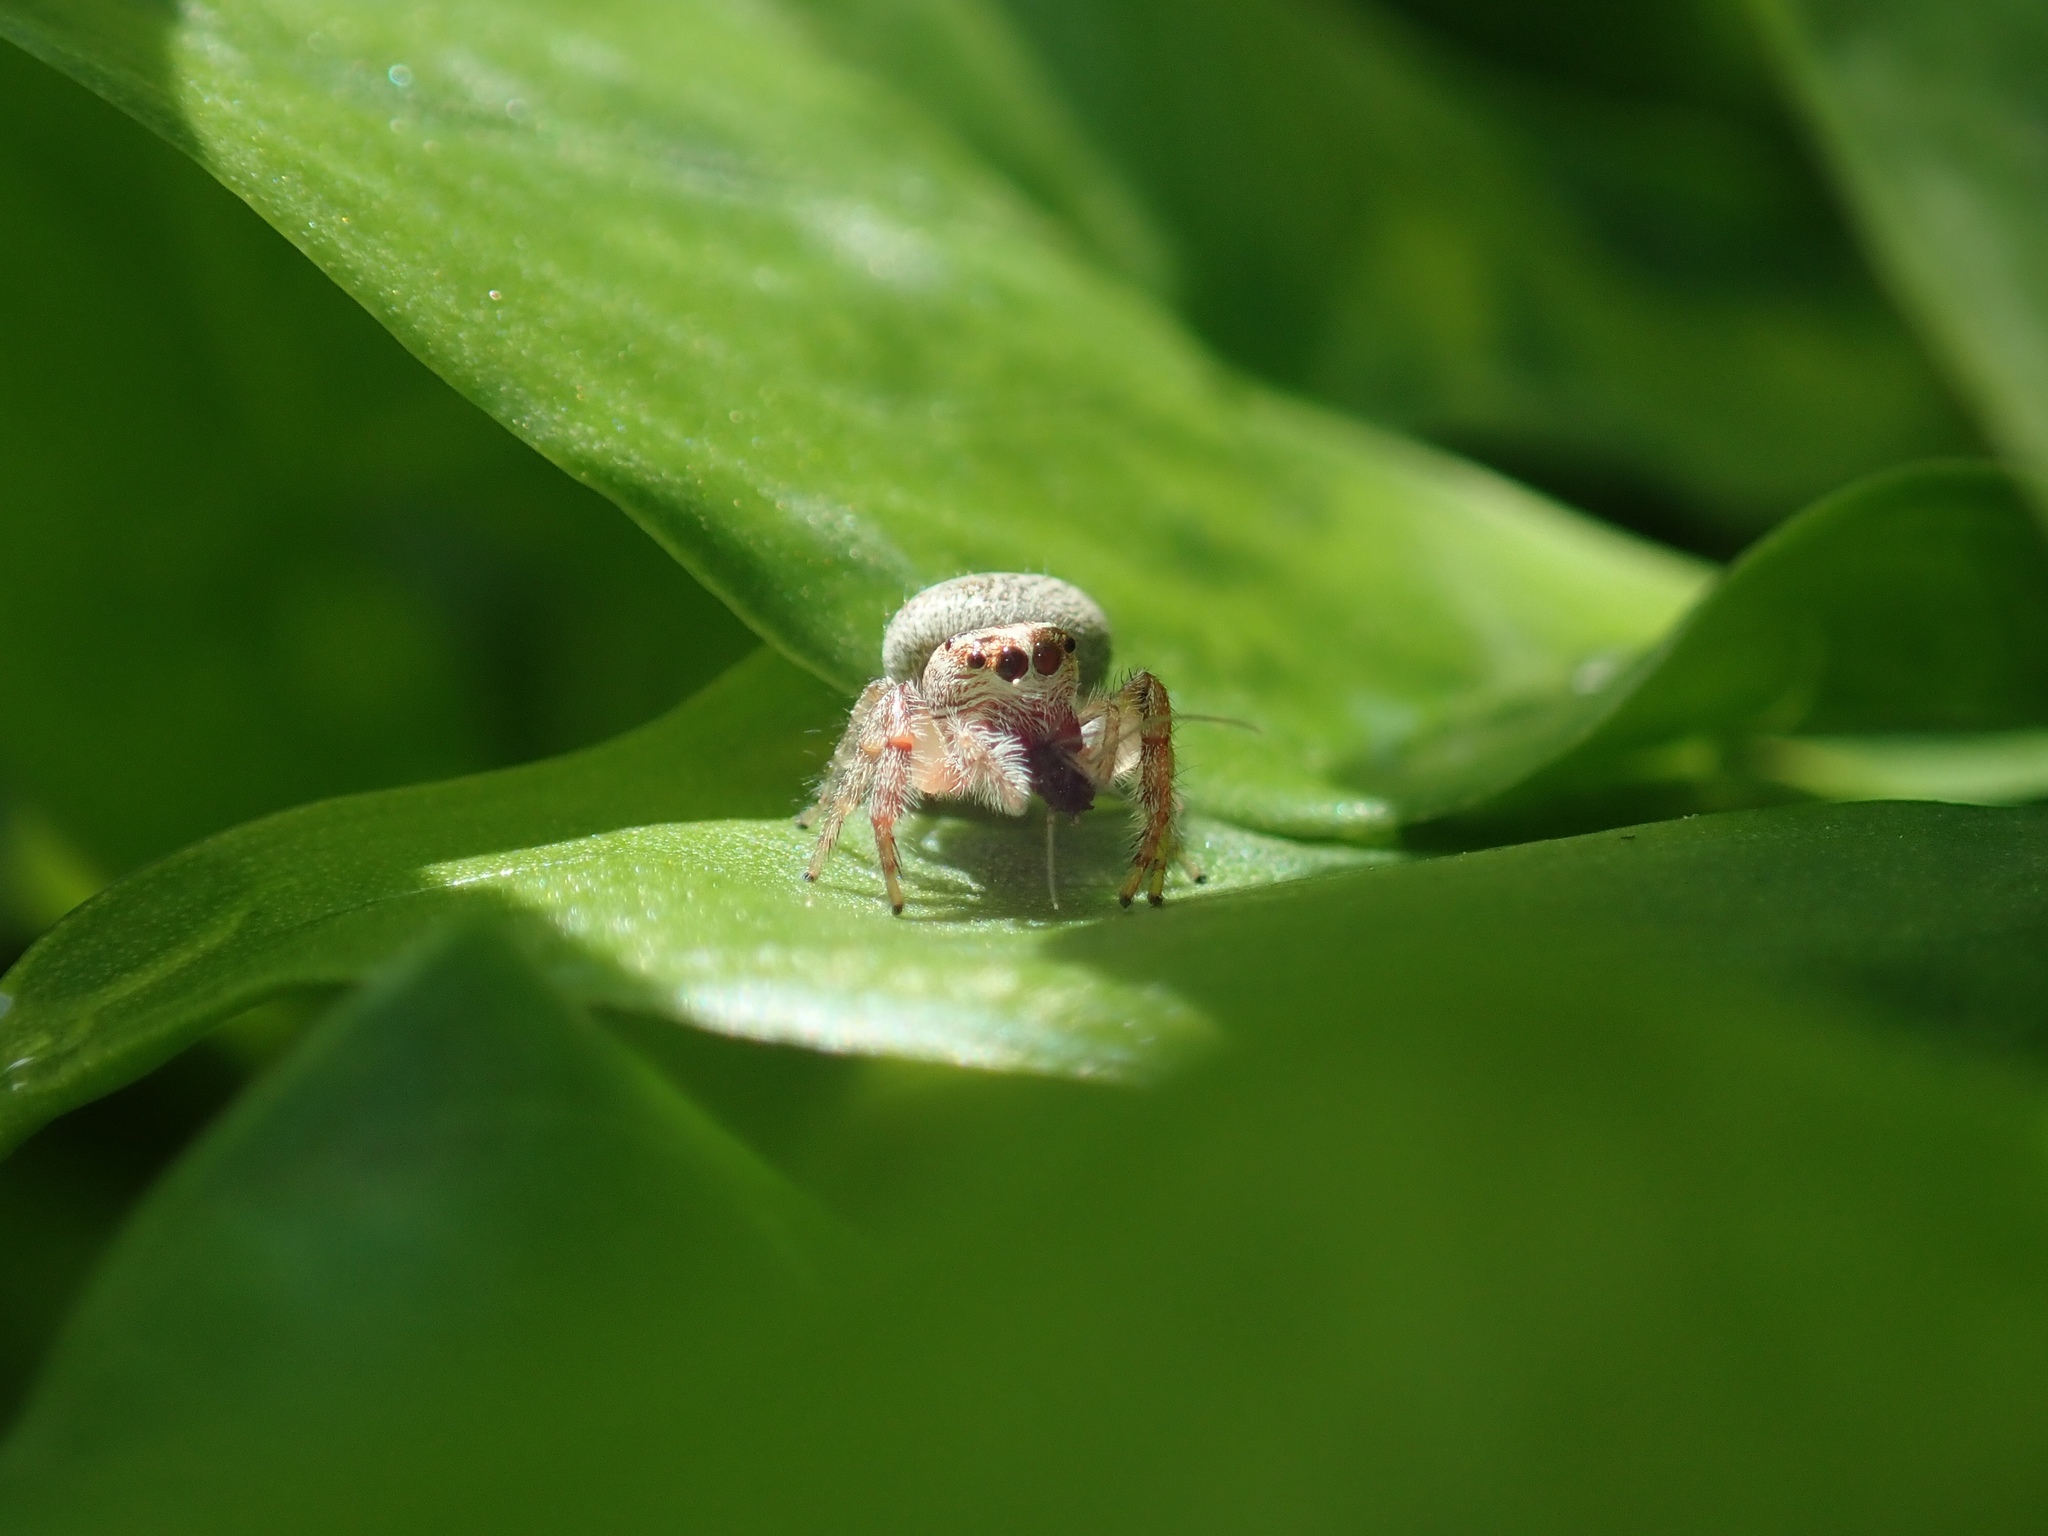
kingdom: Animalia
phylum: Arthropoda
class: Arachnida
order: Araneae
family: Salticidae
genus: Opisthoncus
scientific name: Opisthoncus polyphemus
